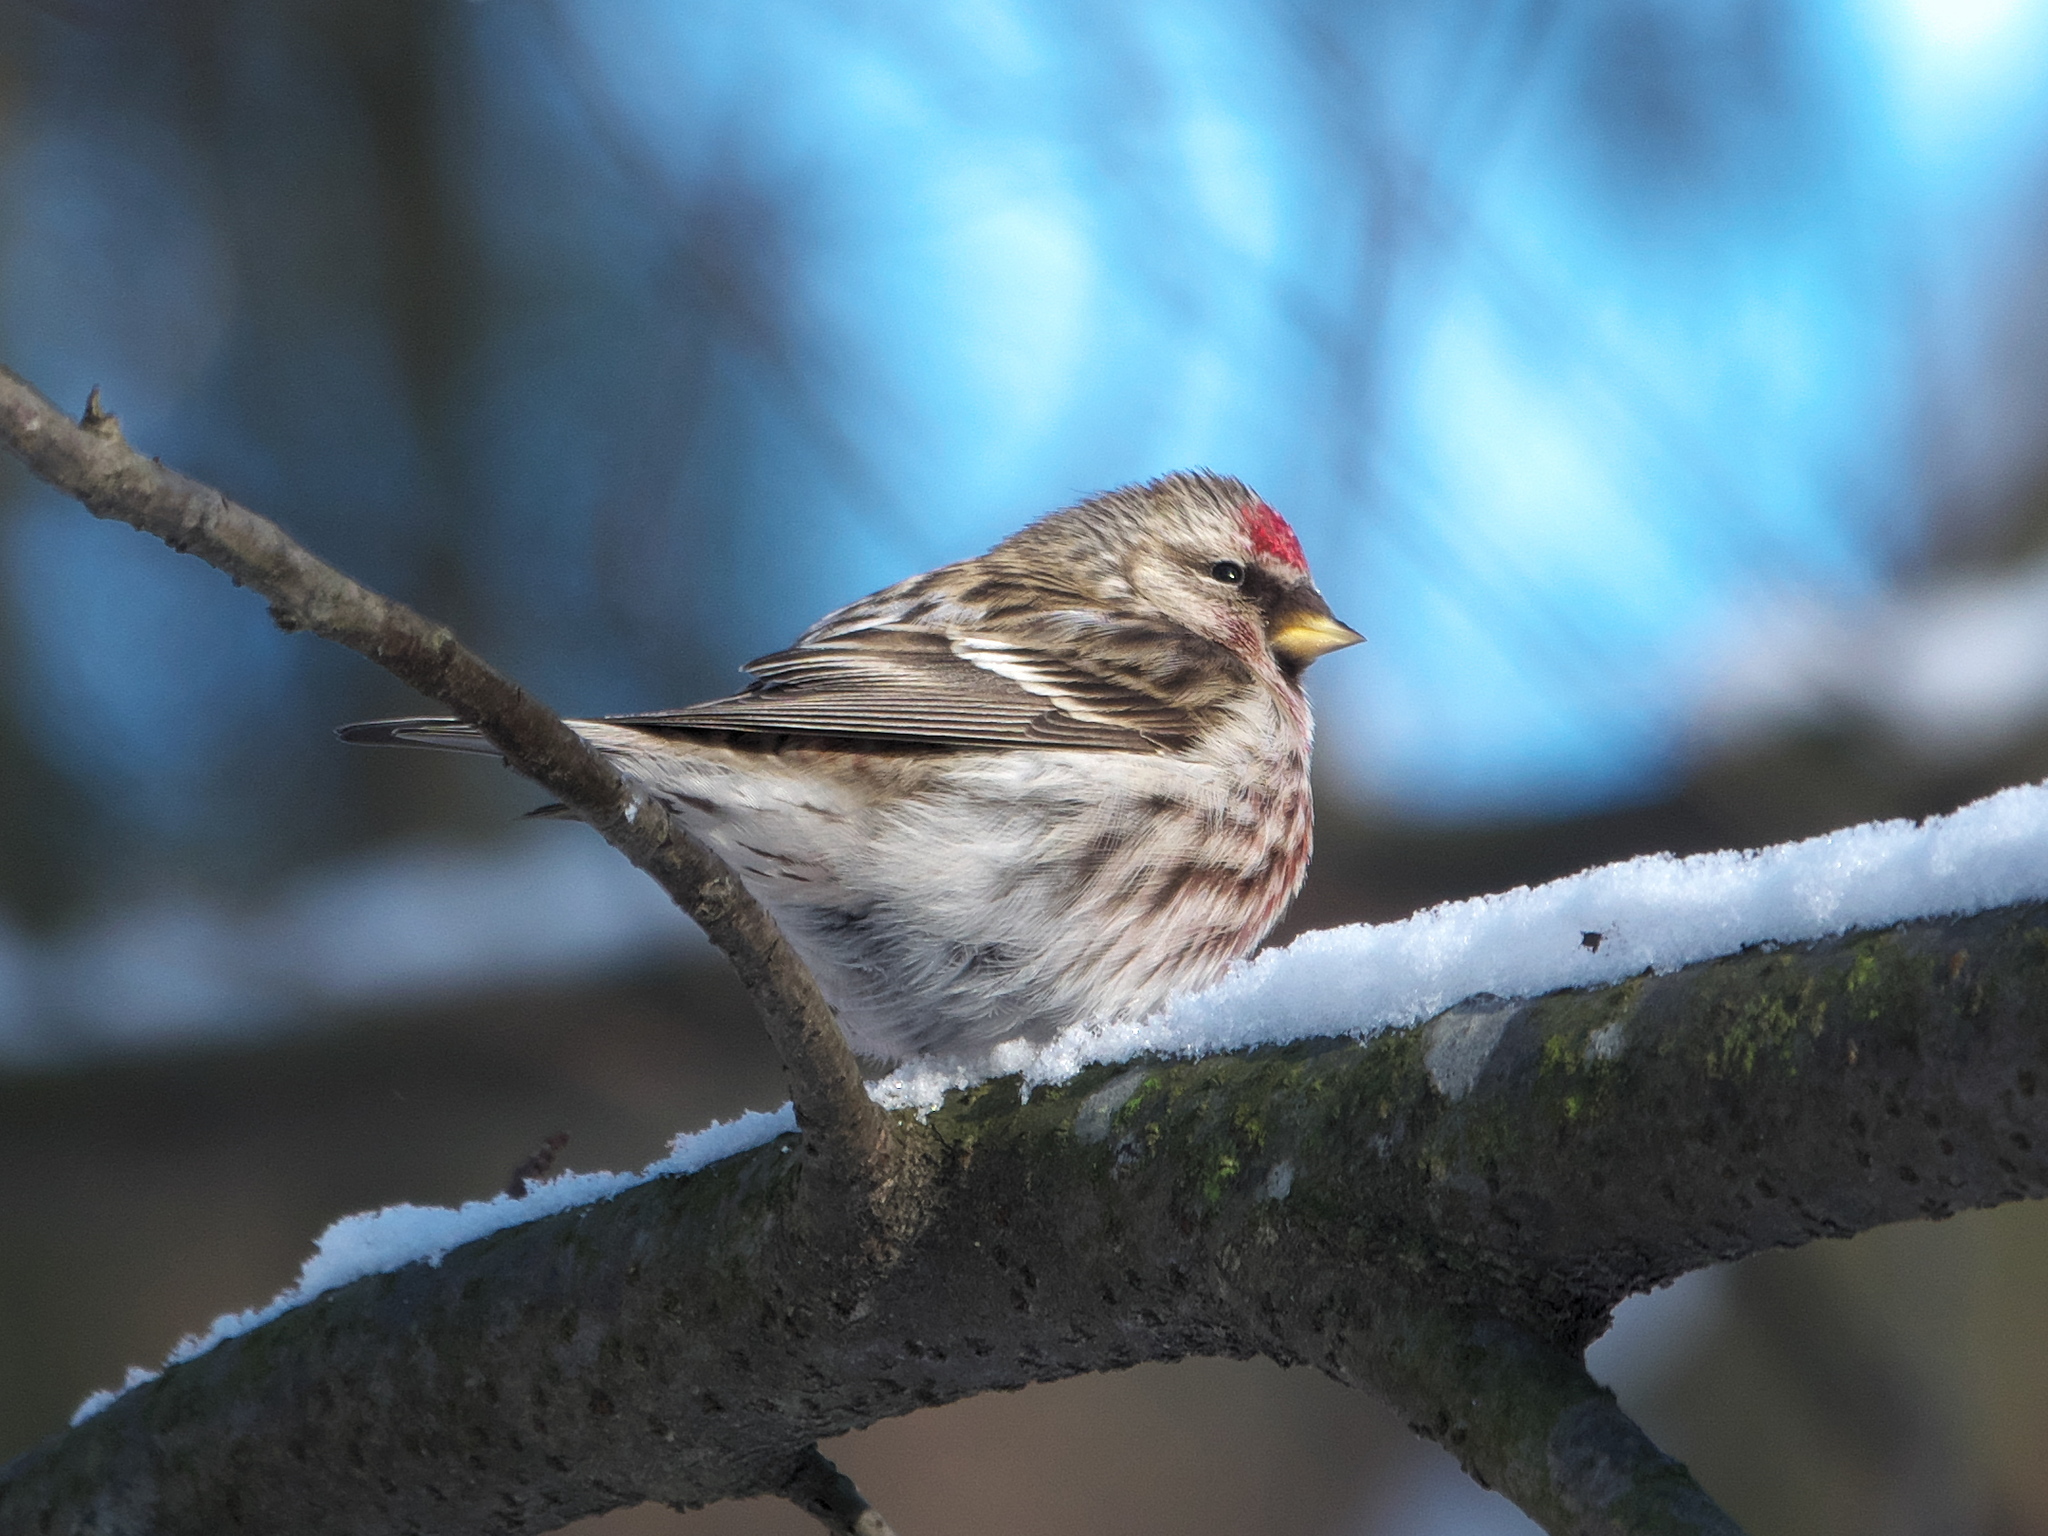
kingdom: Animalia
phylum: Chordata
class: Aves
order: Passeriformes
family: Fringillidae
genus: Acanthis
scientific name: Acanthis flammea
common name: Common redpoll
